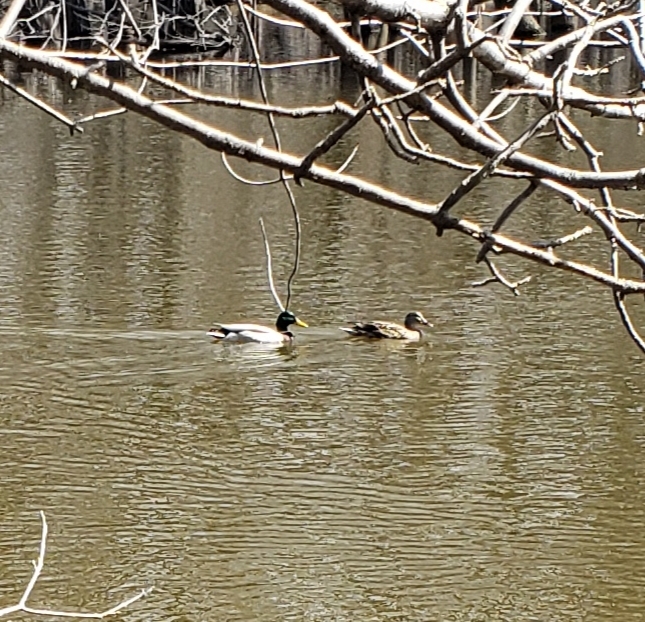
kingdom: Animalia
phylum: Chordata
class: Aves
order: Anseriformes
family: Anatidae
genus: Anas
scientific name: Anas platyrhynchos
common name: Mallard
